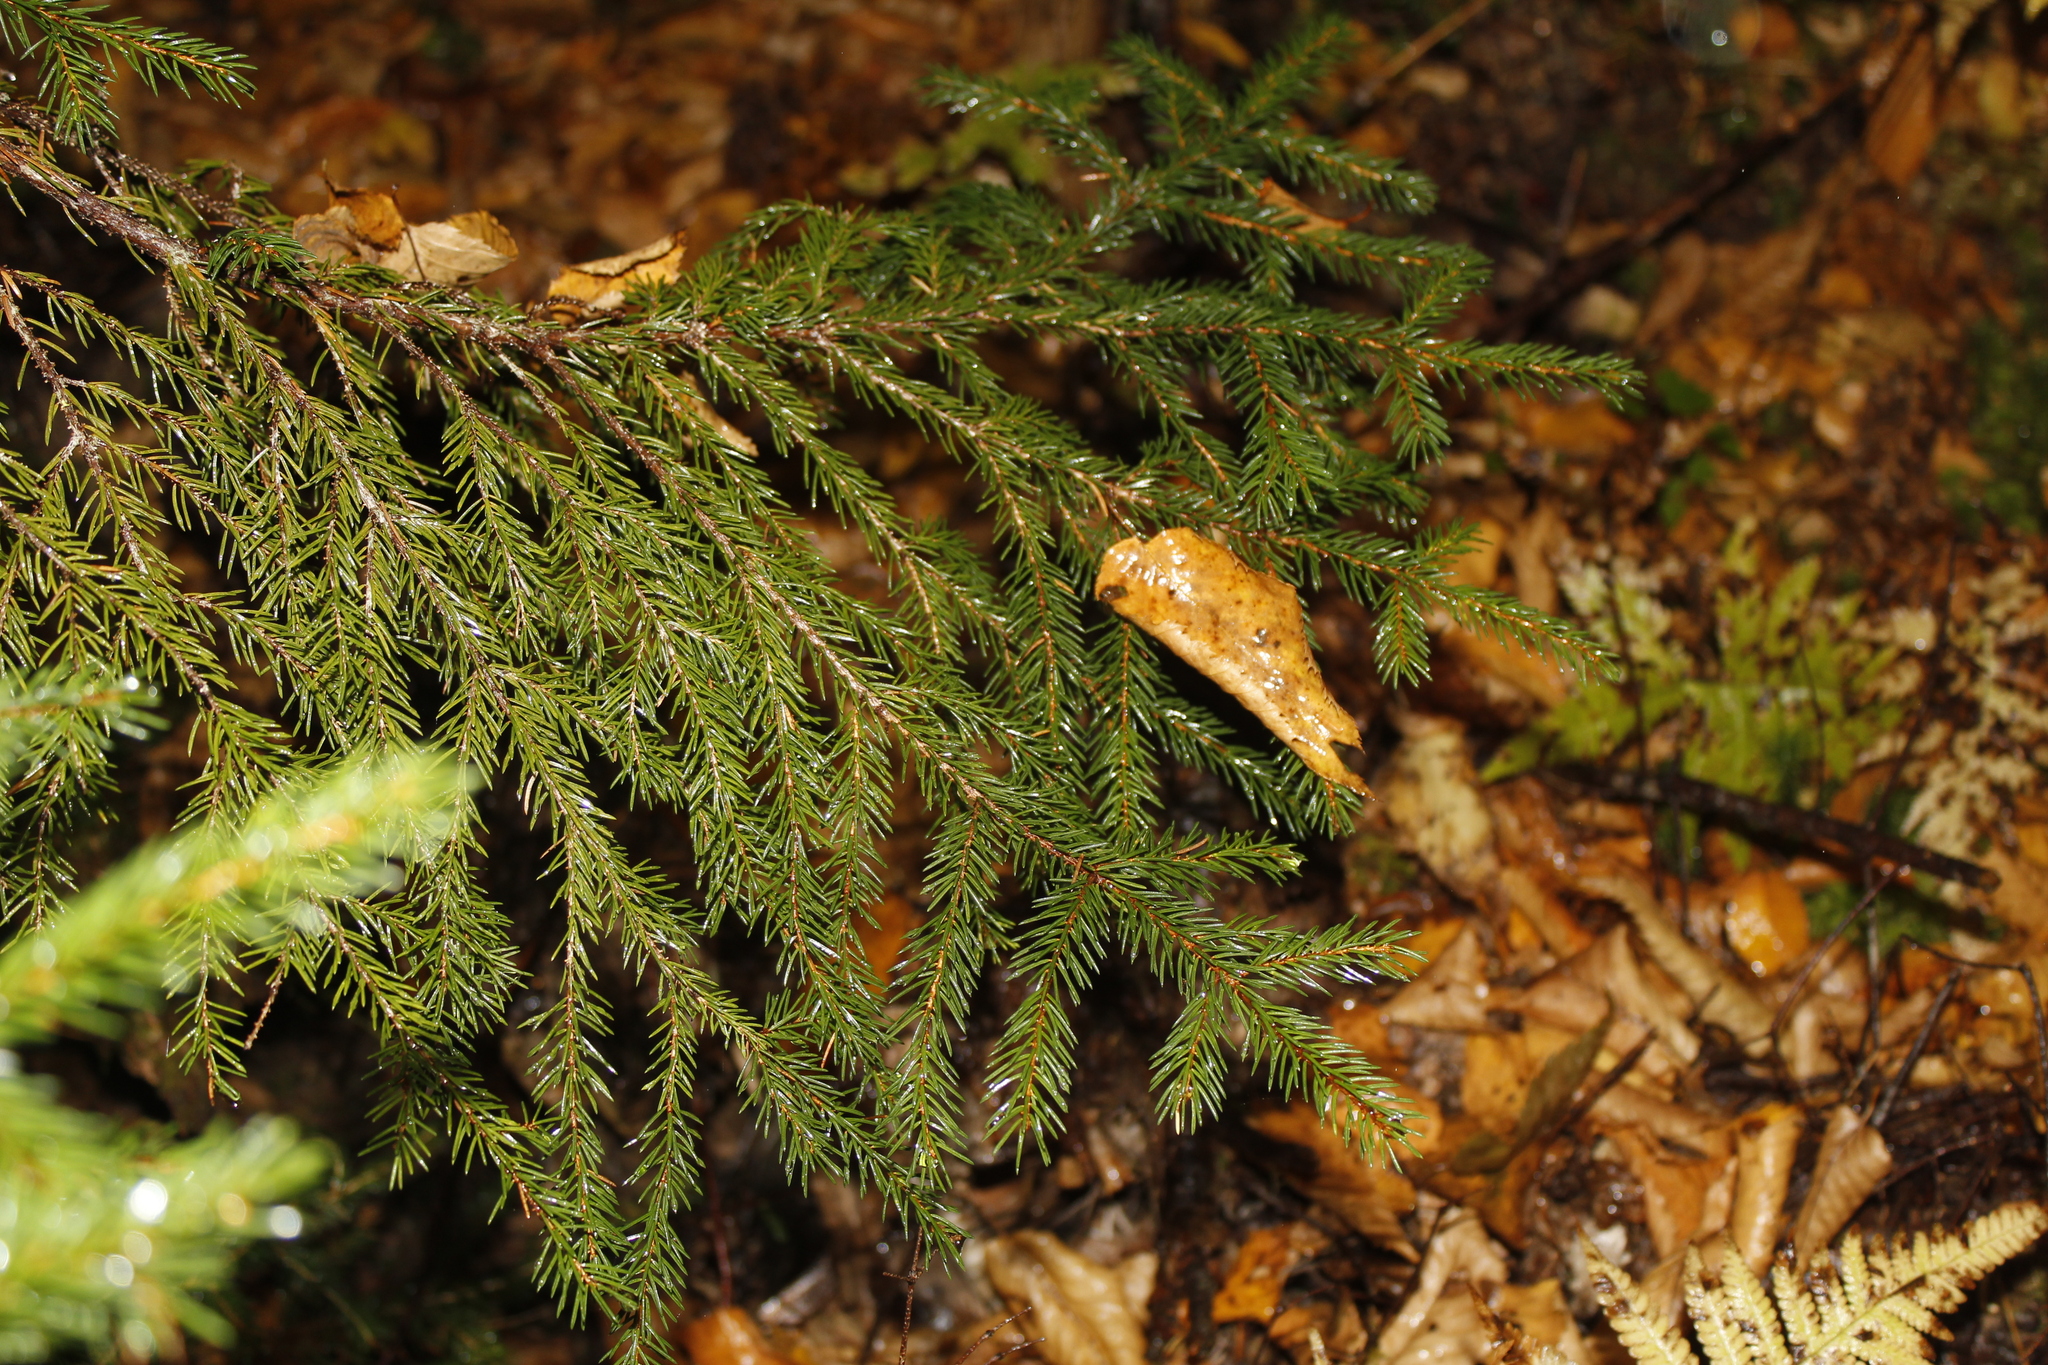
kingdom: Plantae
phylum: Tracheophyta
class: Pinopsida
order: Pinales
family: Pinaceae
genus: Picea
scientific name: Picea rubens
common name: Red spruce
